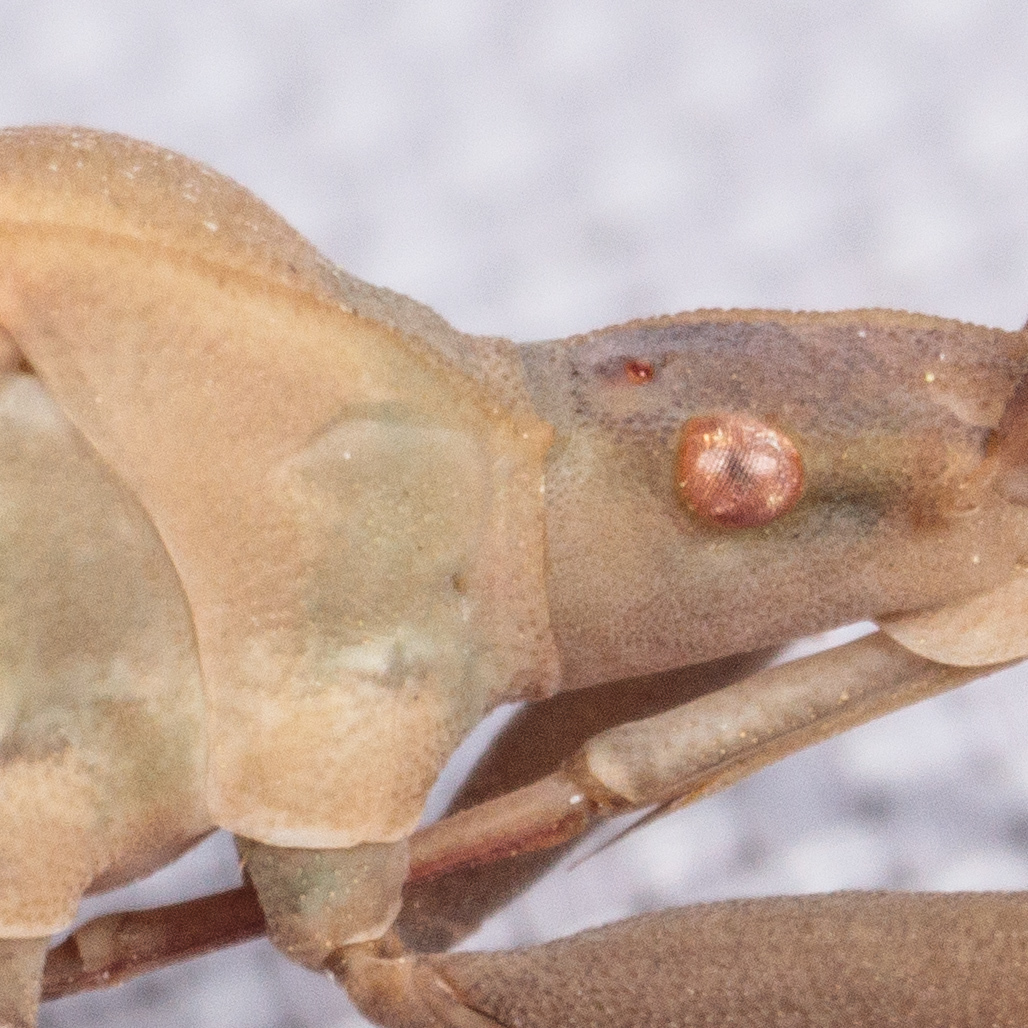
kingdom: Animalia
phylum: Arthropoda
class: Insecta
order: Hemiptera
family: Coreidae
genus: Chelinidea
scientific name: Chelinidea vittiger
